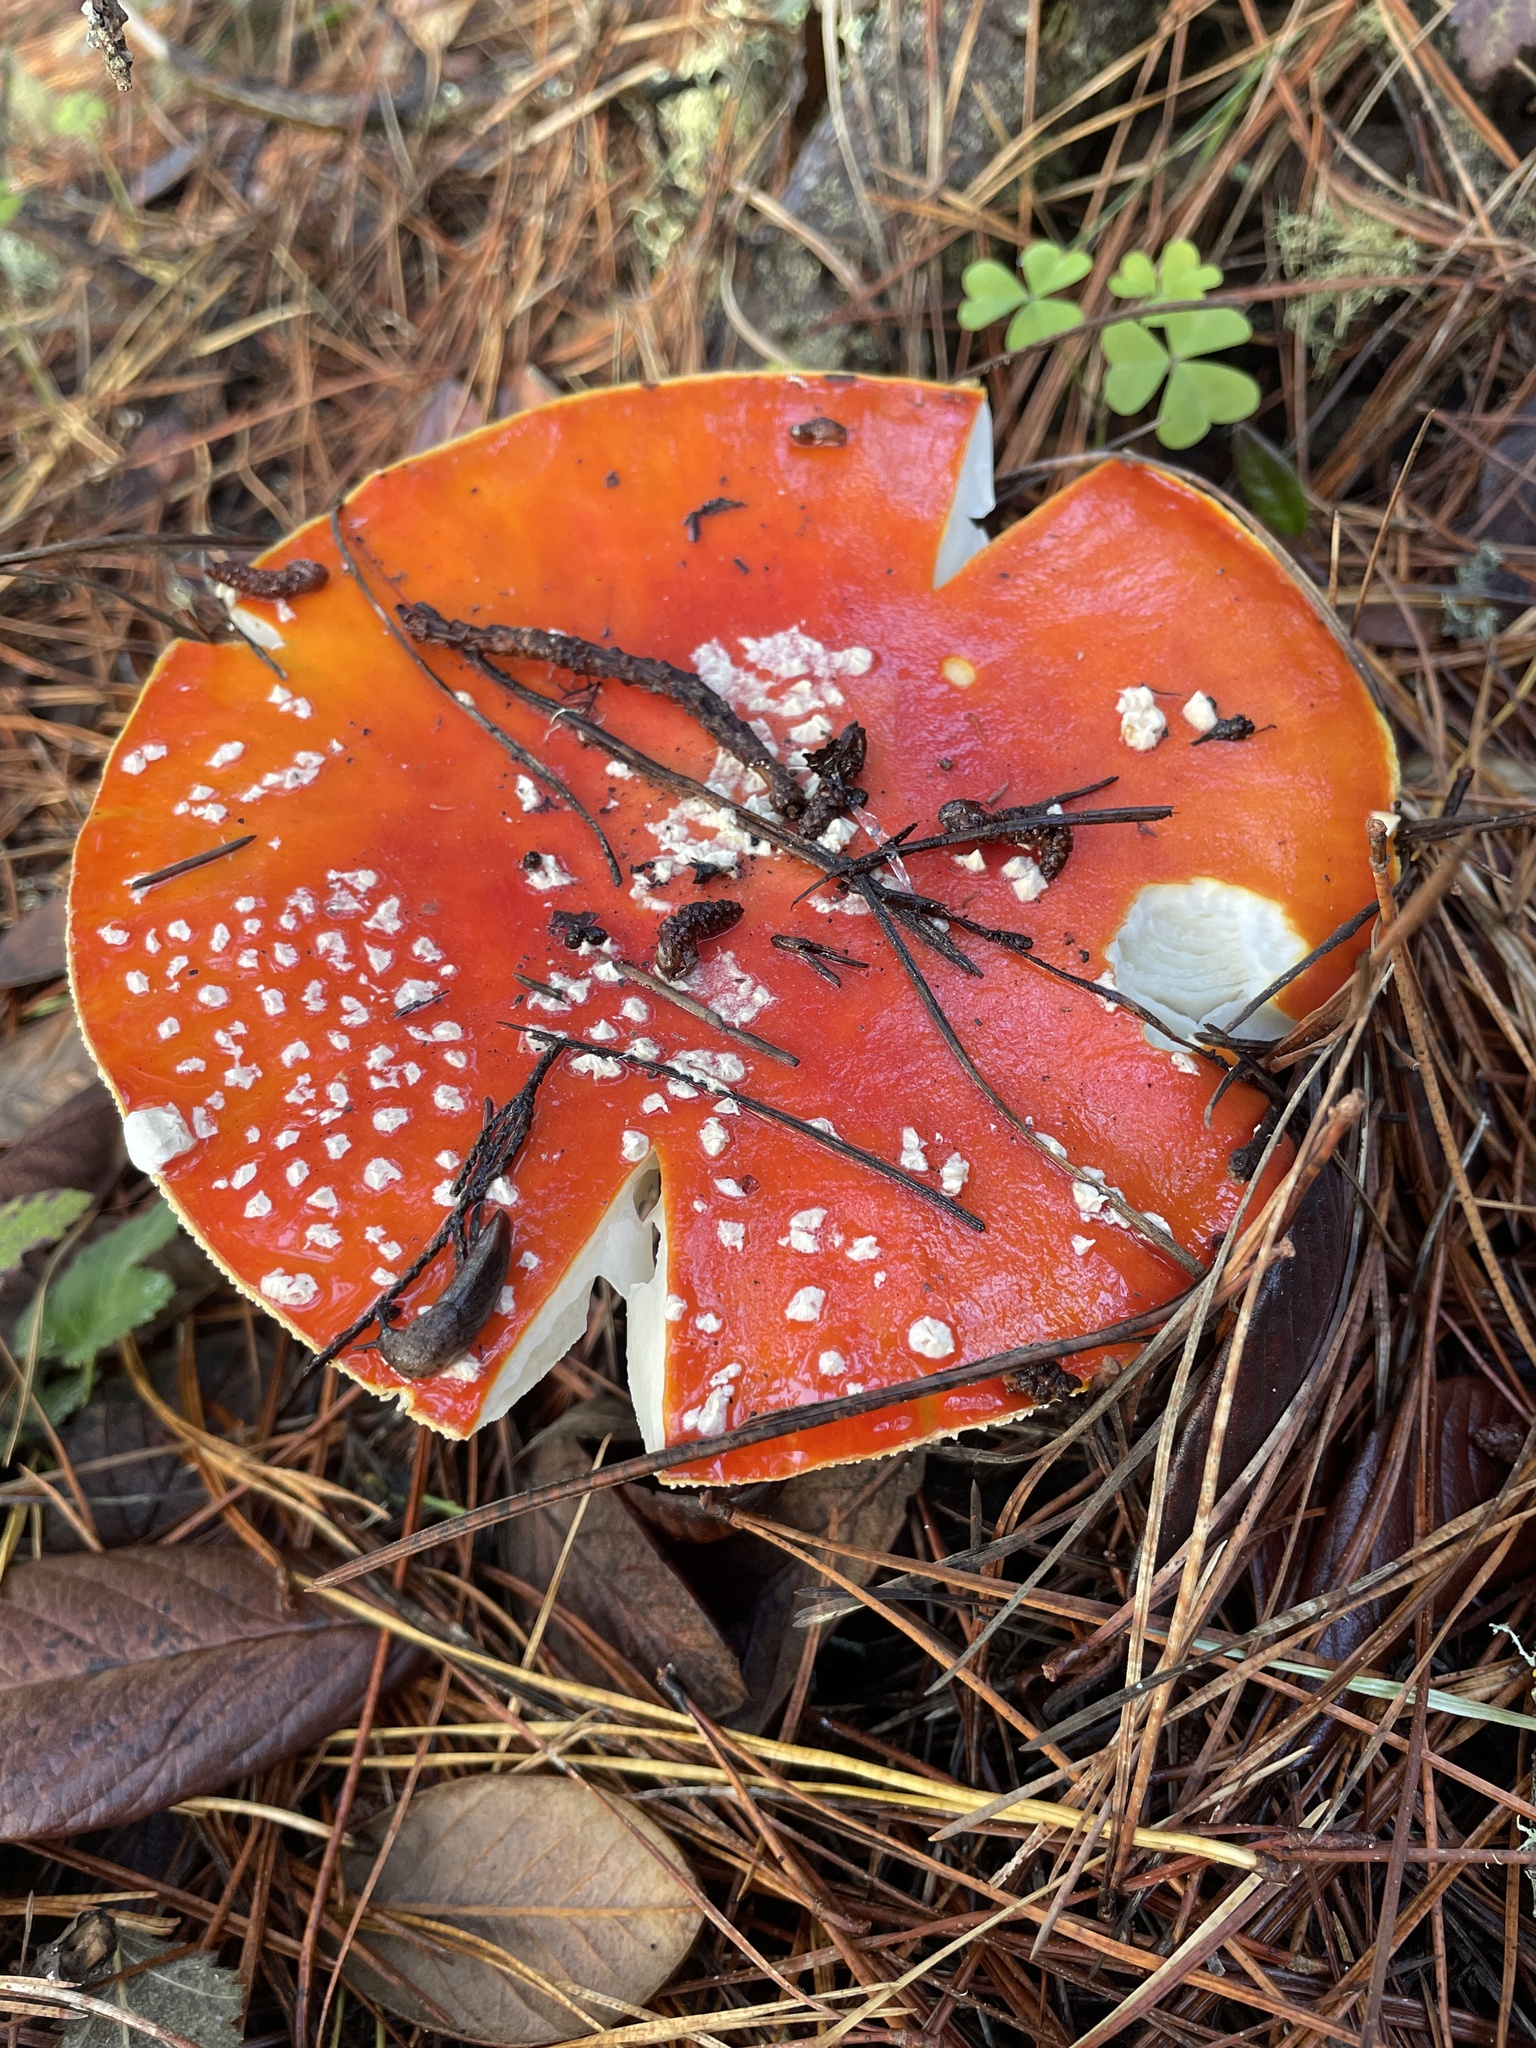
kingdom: Fungi
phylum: Basidiomycota
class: Agaricomycetes
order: Agaricales
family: Amanitaceae
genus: Amanita
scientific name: Amanita muscaria
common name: Fly agaric
